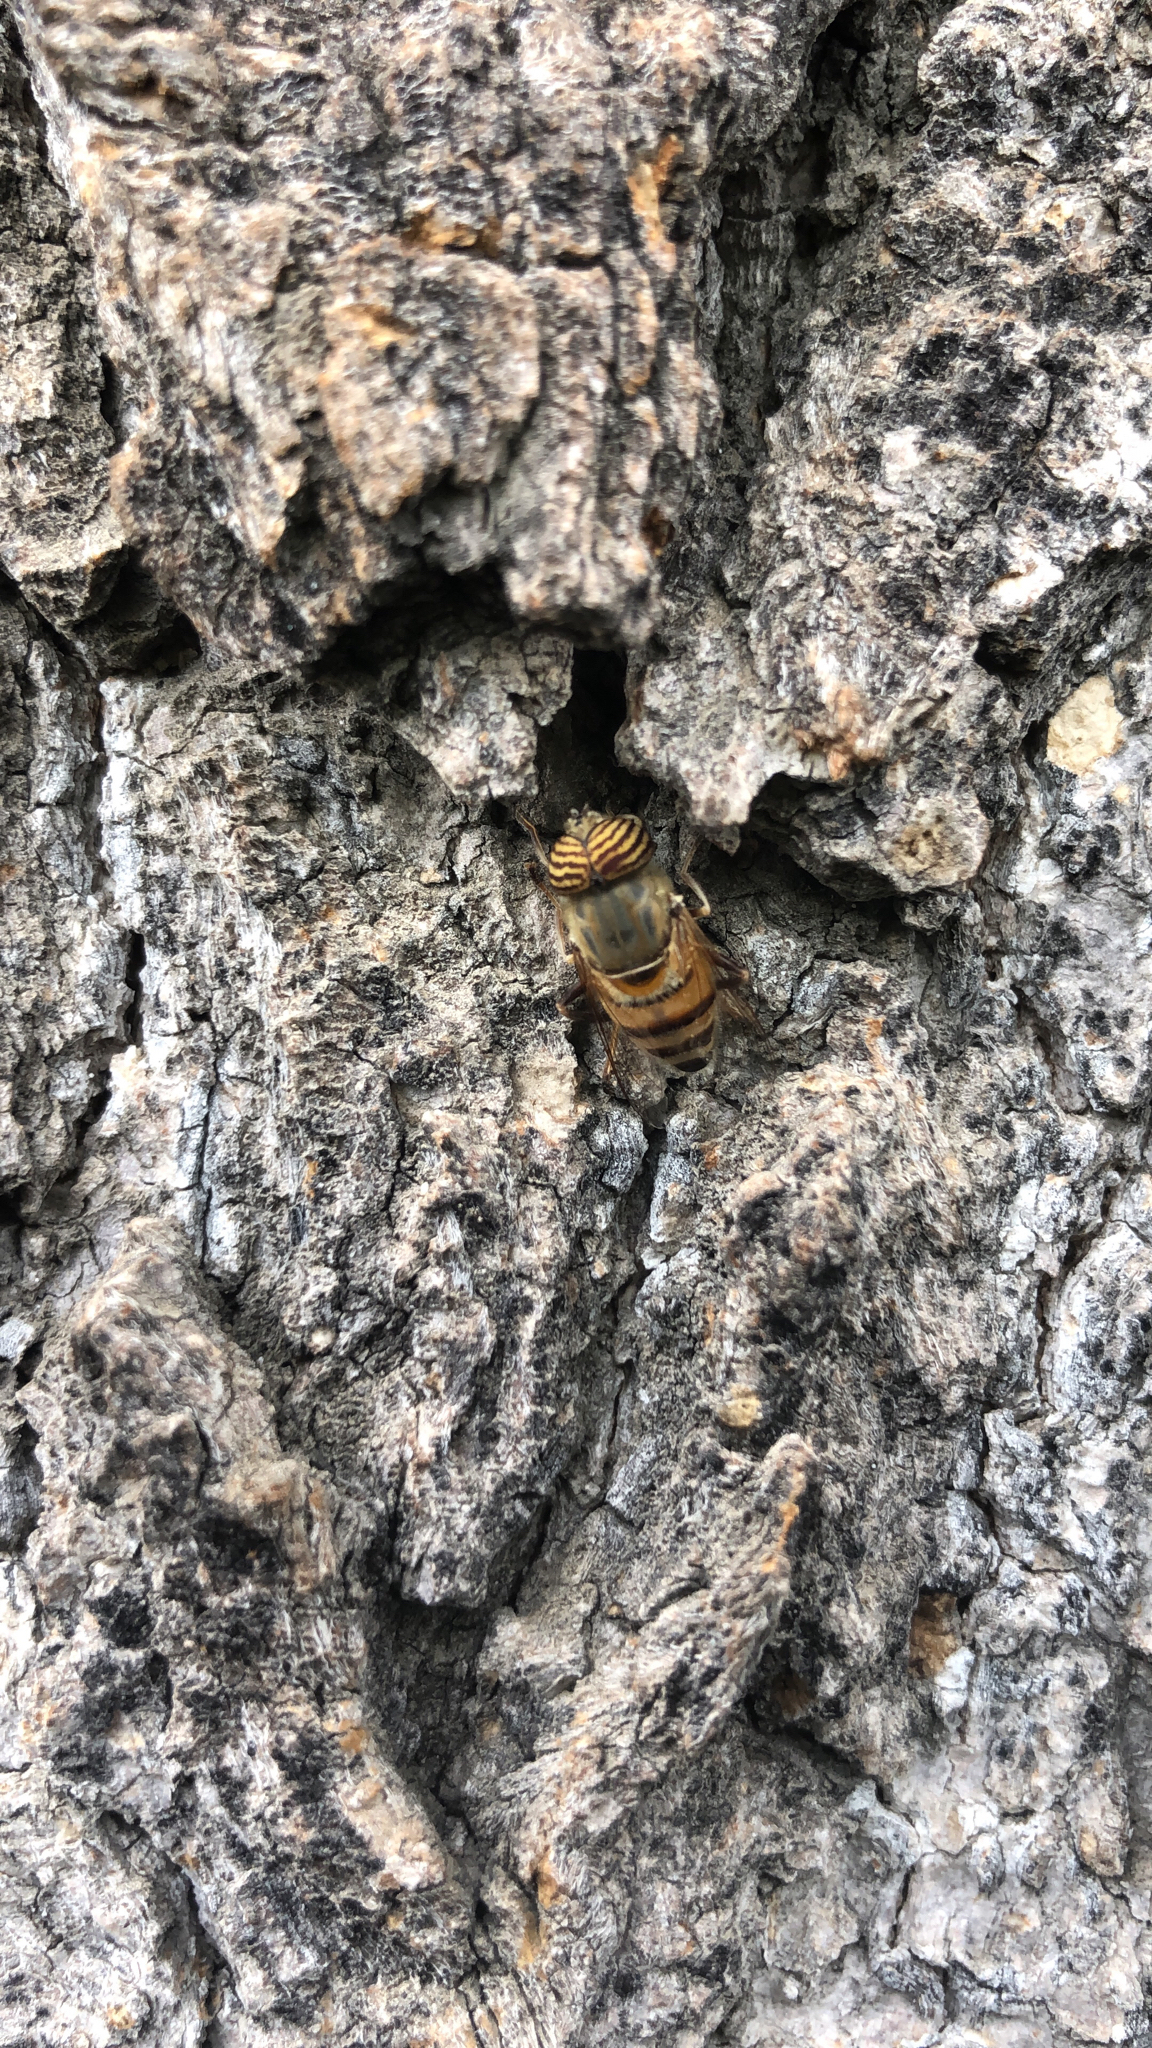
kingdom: Animalia
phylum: Arthropoda
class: Insecta
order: Diptera
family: Syrphidae
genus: Eristalinus
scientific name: Eristalinus taeniops
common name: Syrphid fly
